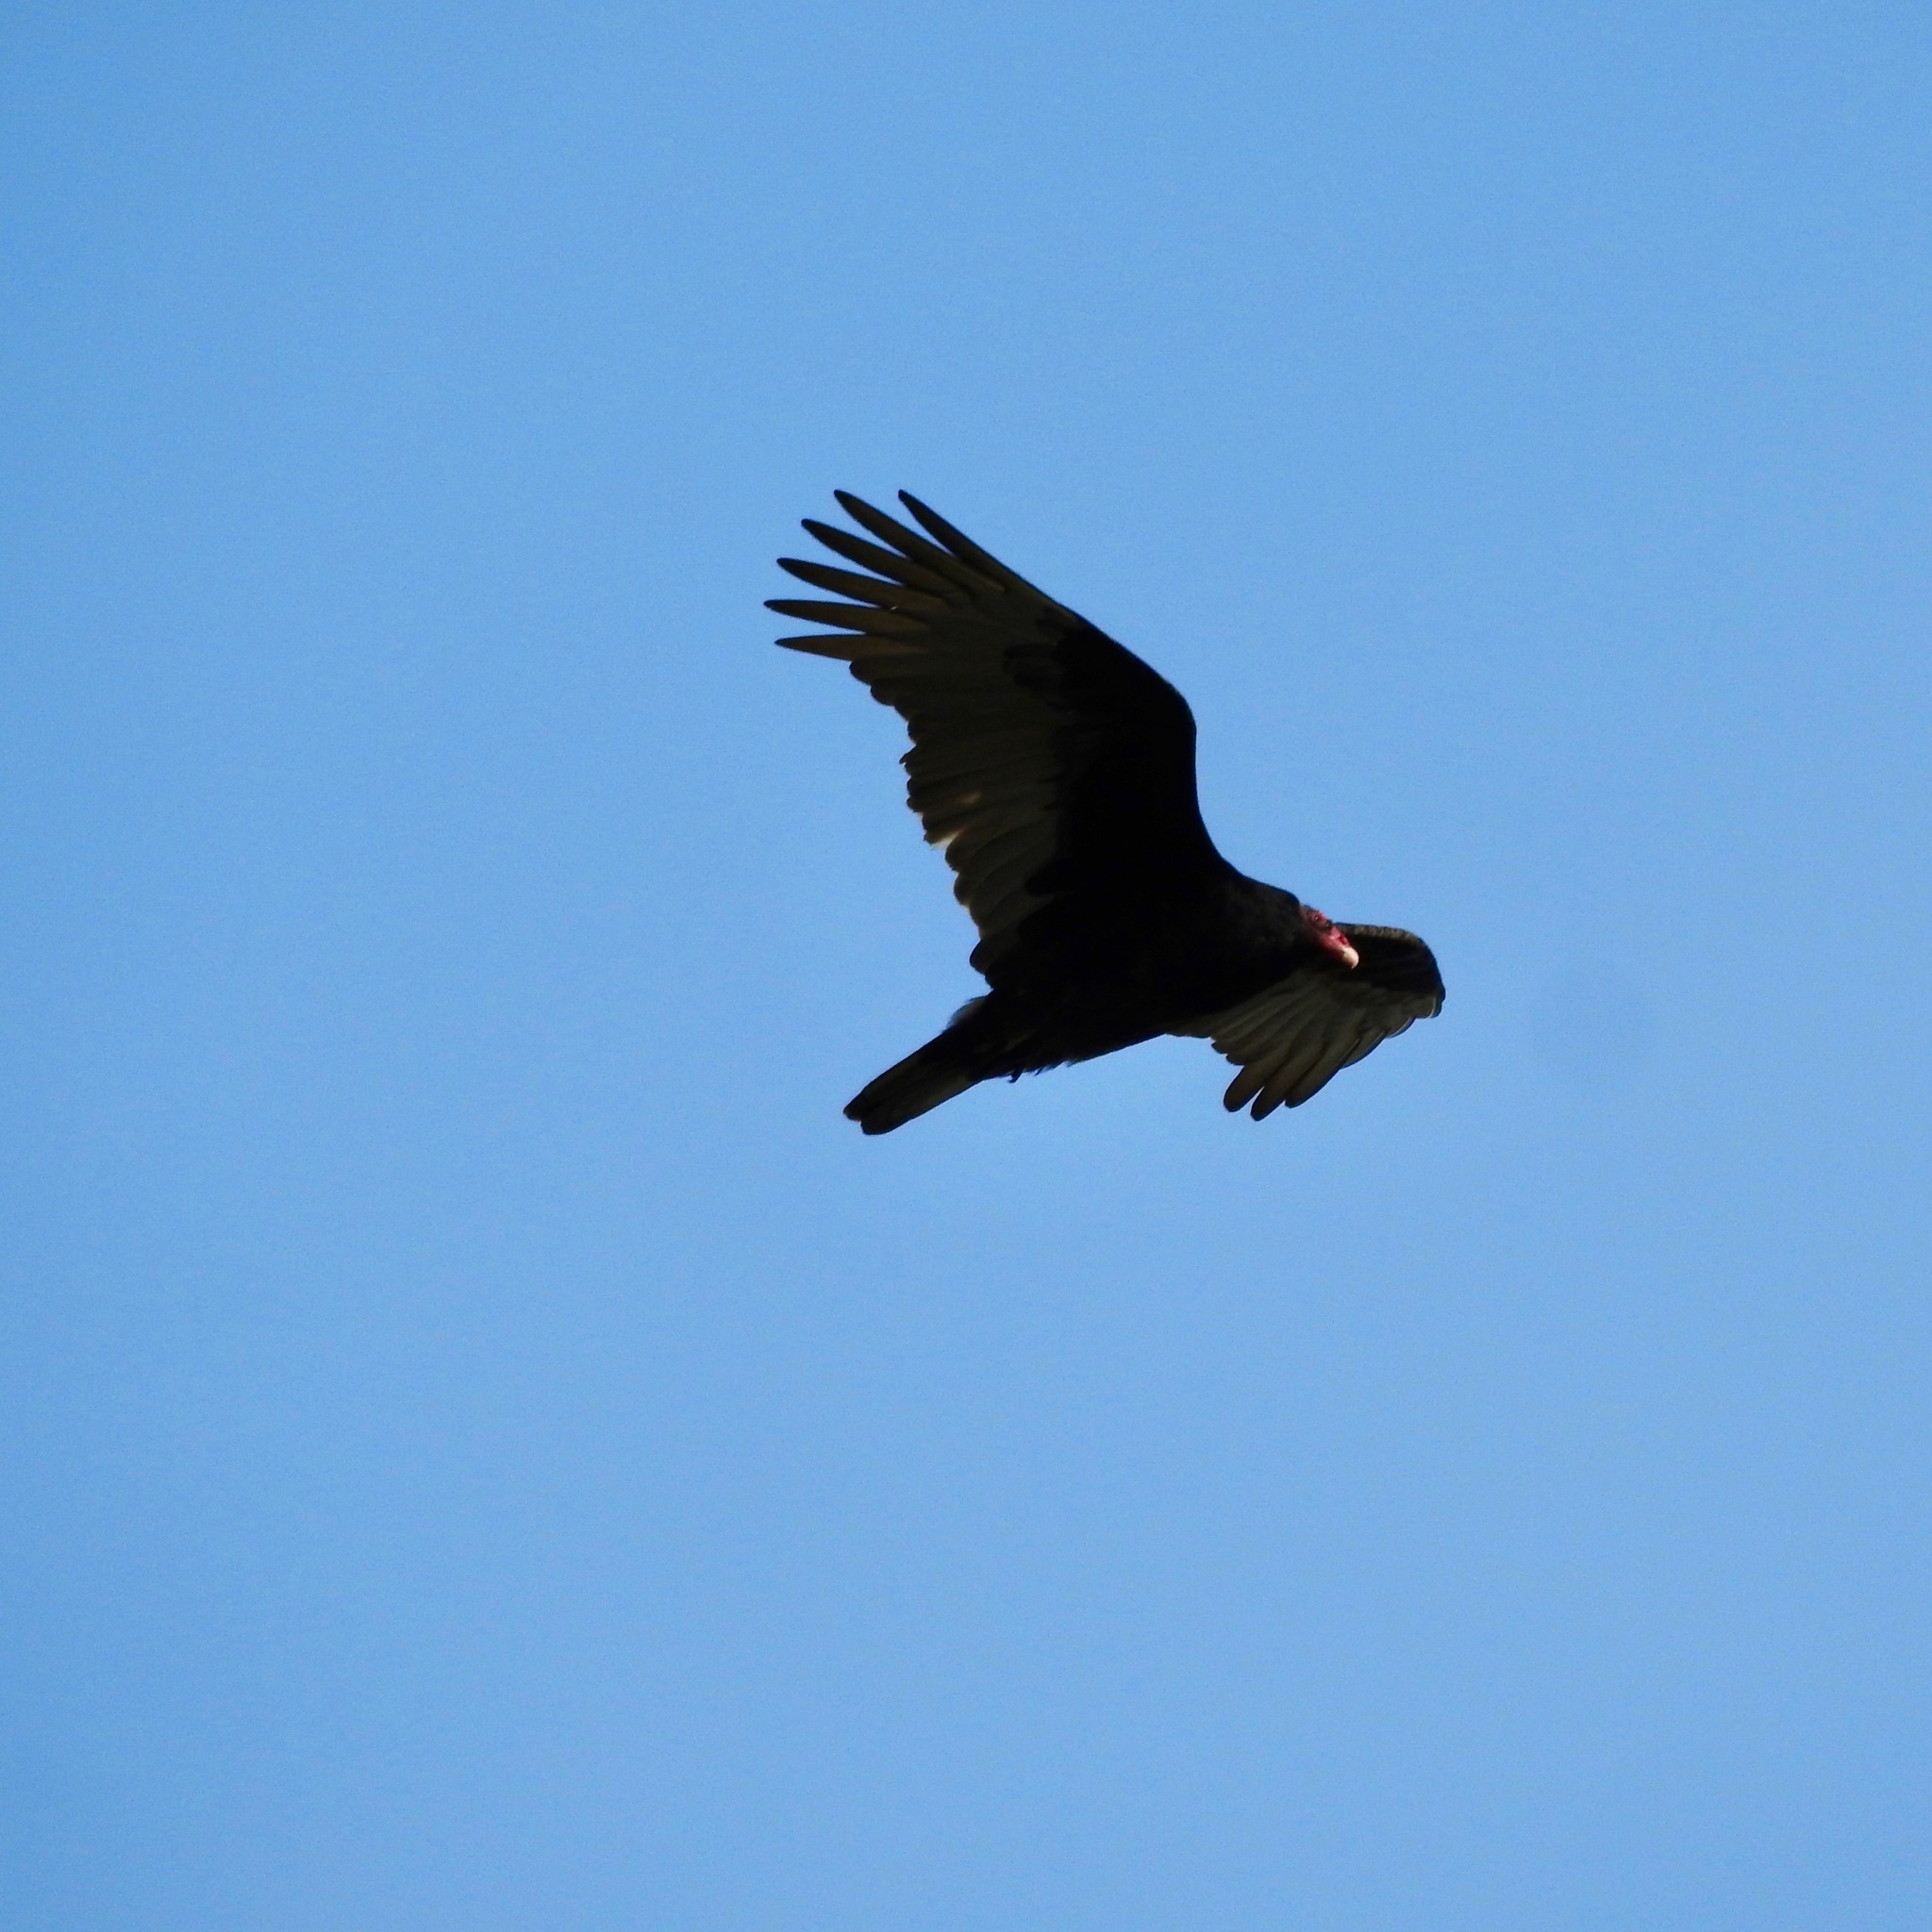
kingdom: Animalia
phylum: Chordata
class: Aves
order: Accipitriformes
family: Cathartidae
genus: Cathartes
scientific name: Cathartes aura
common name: Turkey vulture
